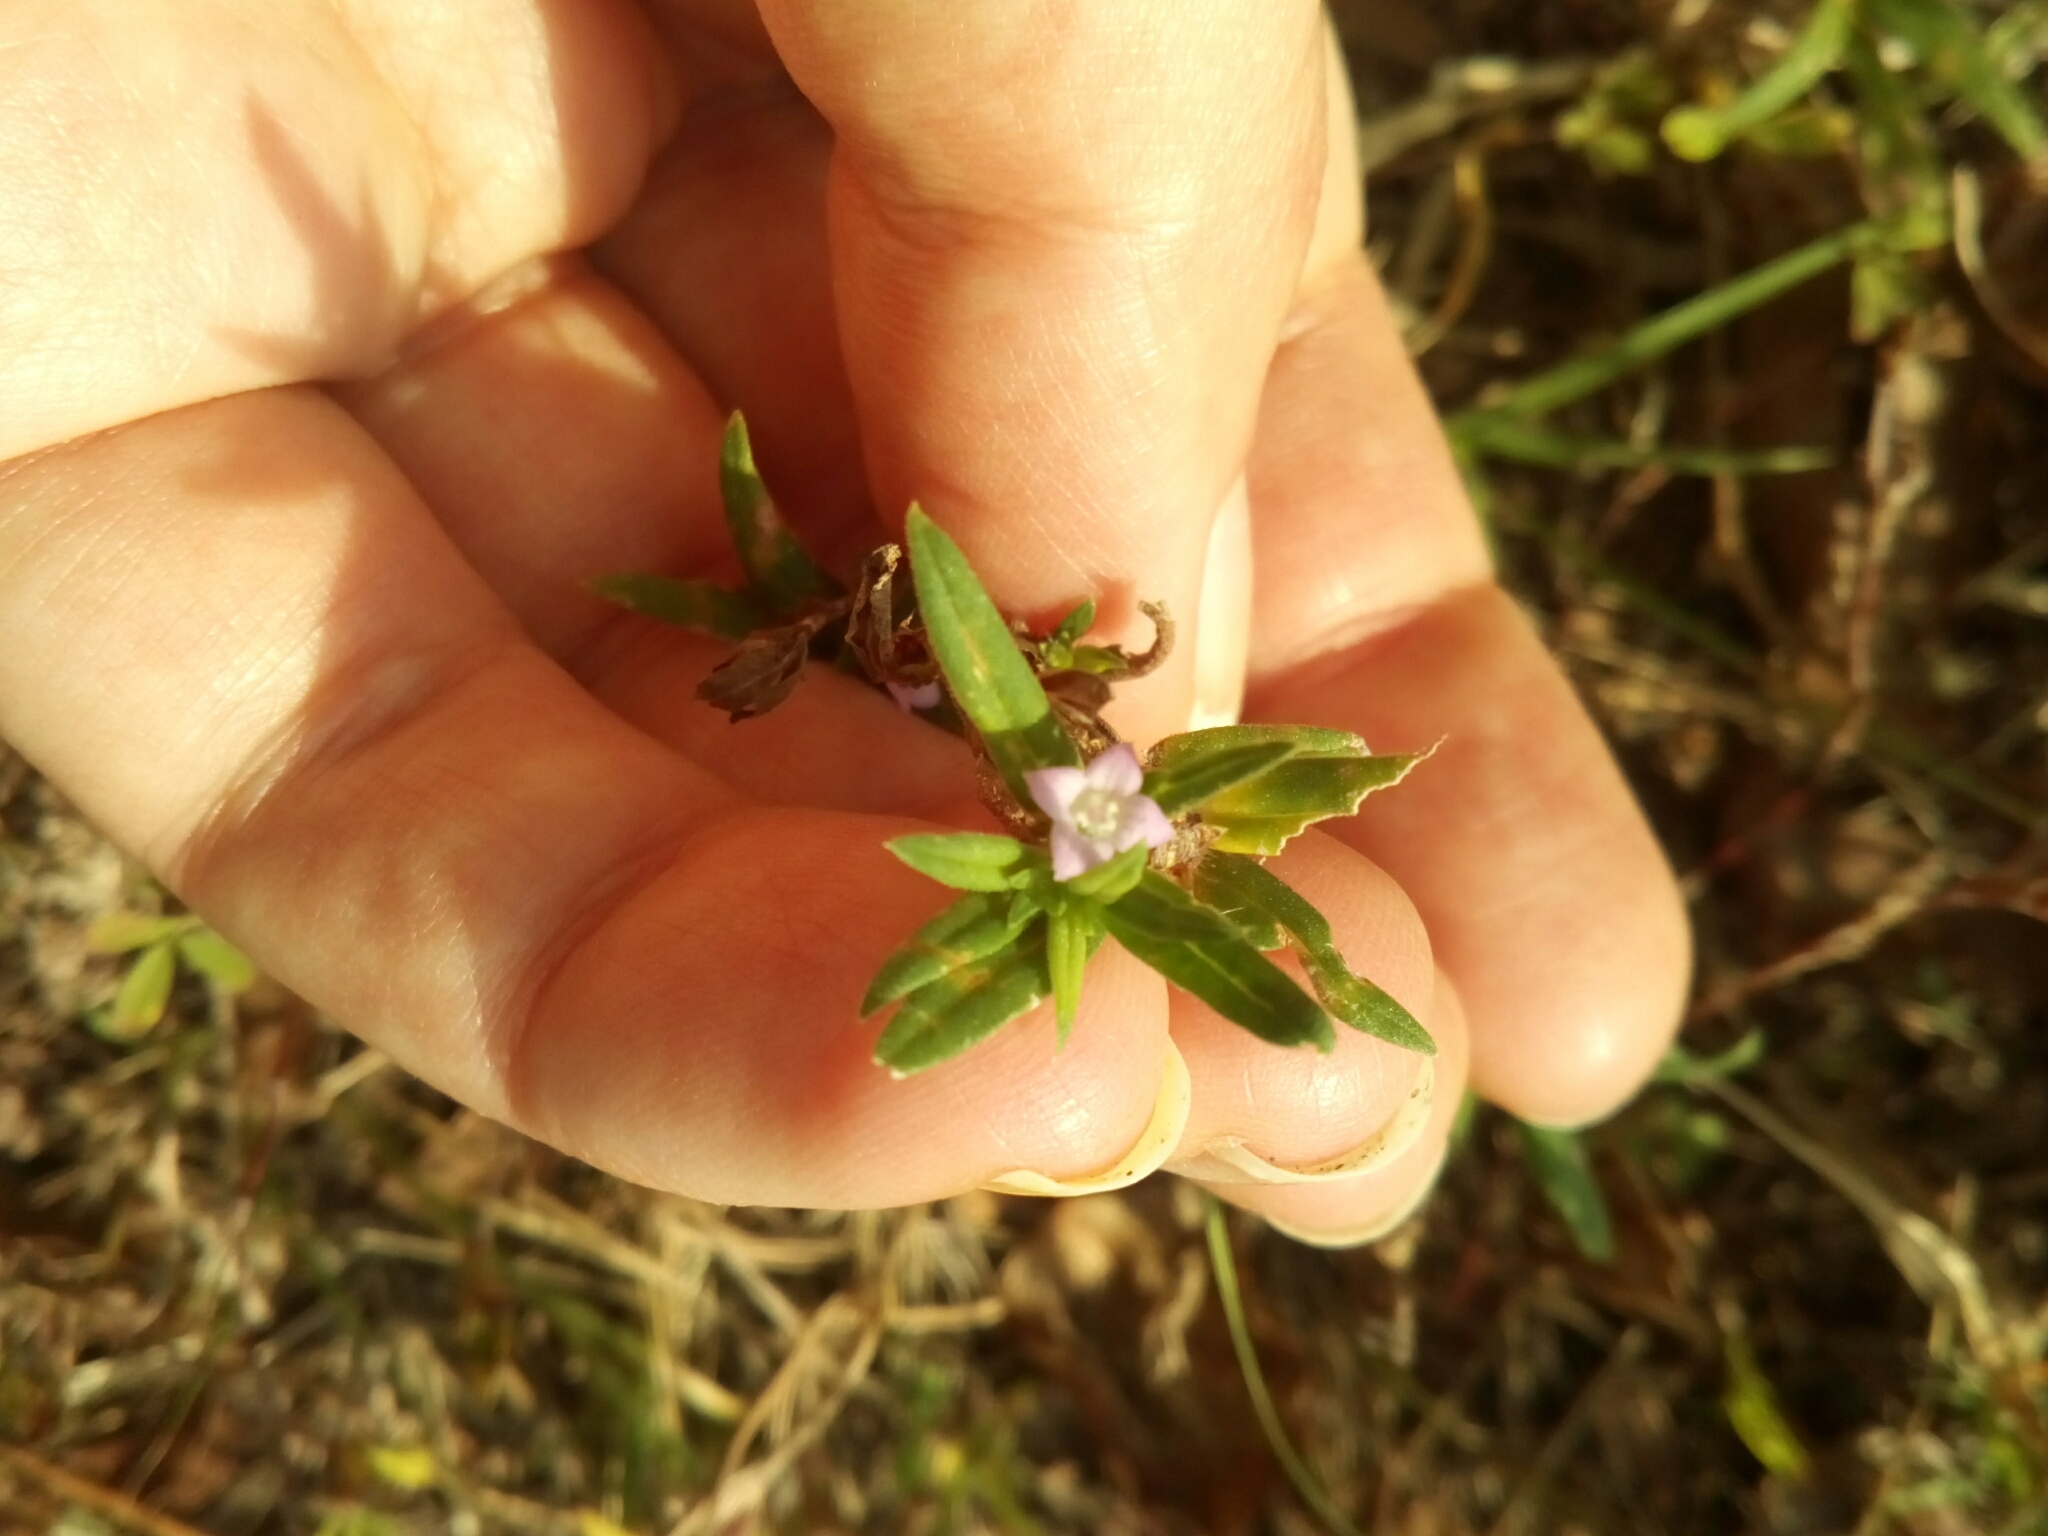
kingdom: Plantae
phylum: Tracheophyta
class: Magnoliopsida
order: Gentianales
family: Rubiaceae
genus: Hexasepalum
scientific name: Hexasepalum teres
